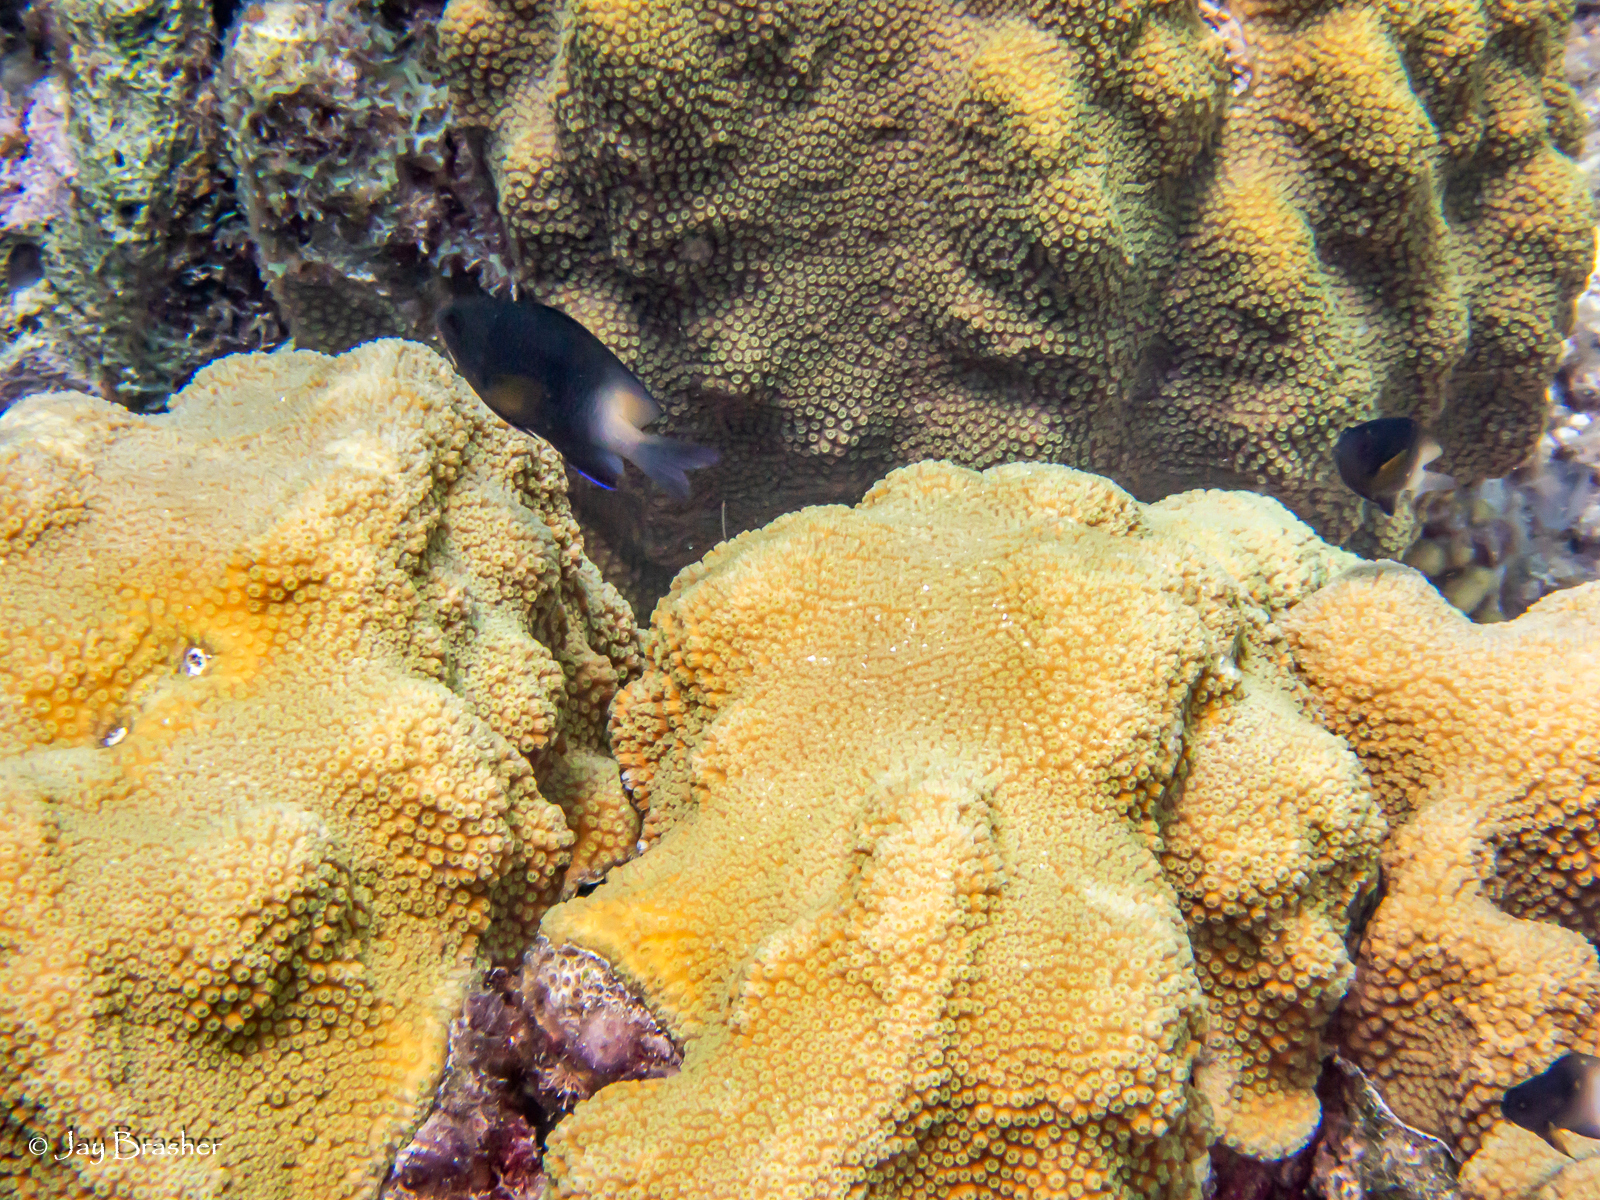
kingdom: Animalia
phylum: Chordata
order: Perciformes
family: Pomacentridae
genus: Stegastes
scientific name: Stegastes partitus
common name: Bicolor damselfish
